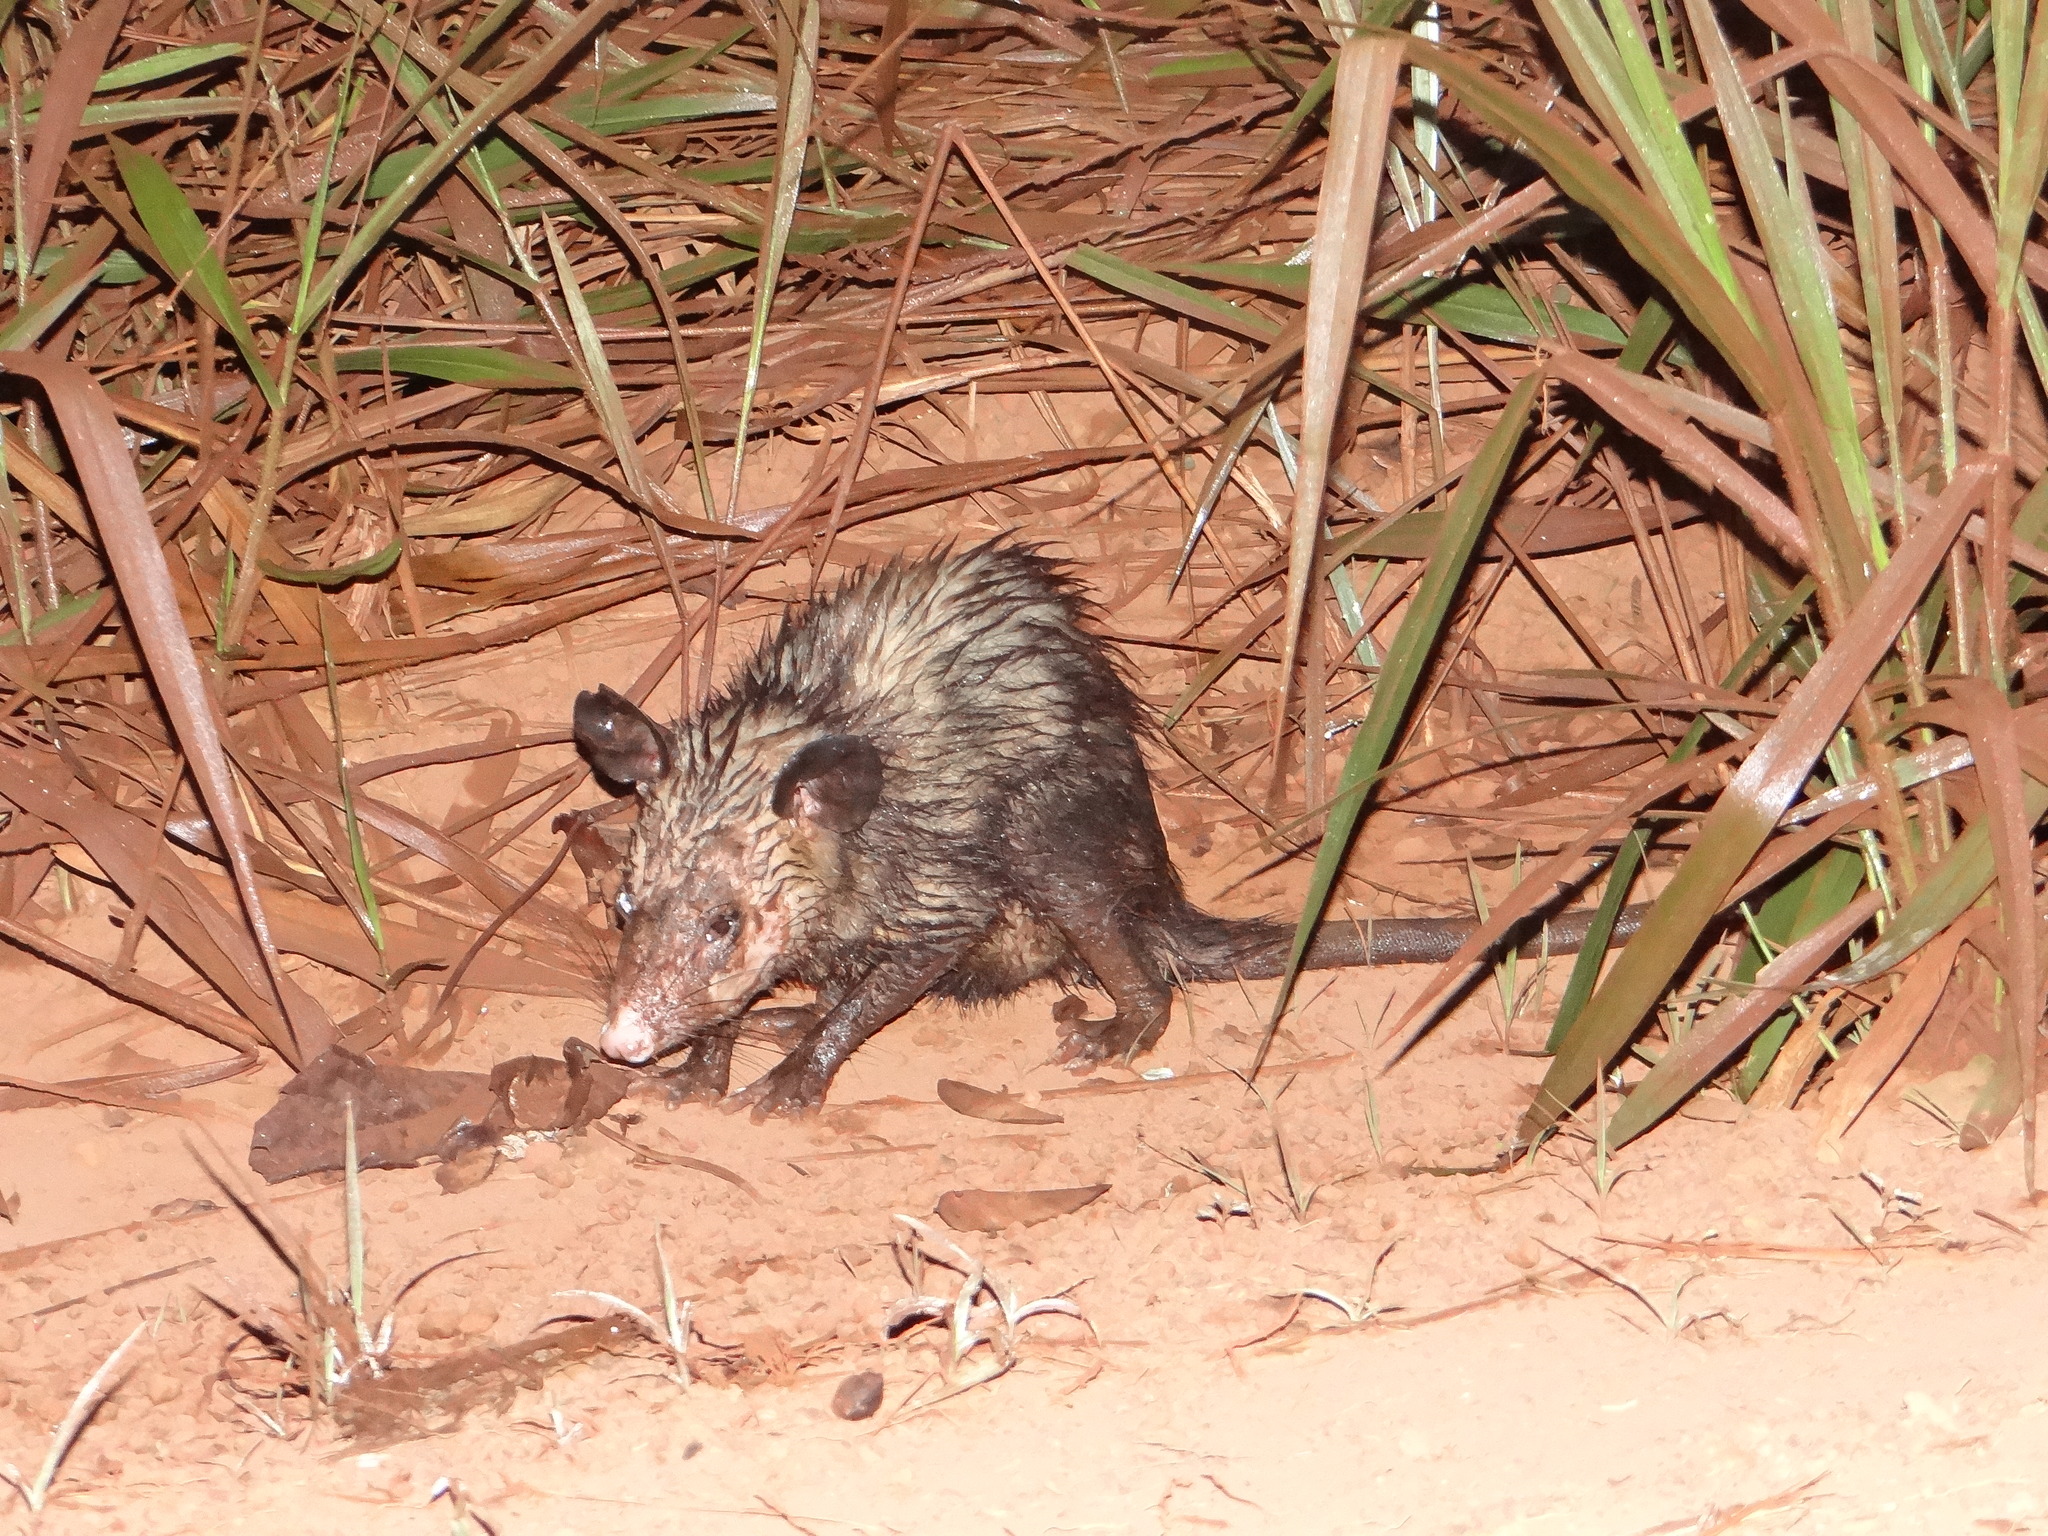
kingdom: Animalia
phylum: Chordata
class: Mammalia
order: Didelphimorphia
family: Didelphidae
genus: Didelphis
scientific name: Didelphis marsupialis
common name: Common opossum
